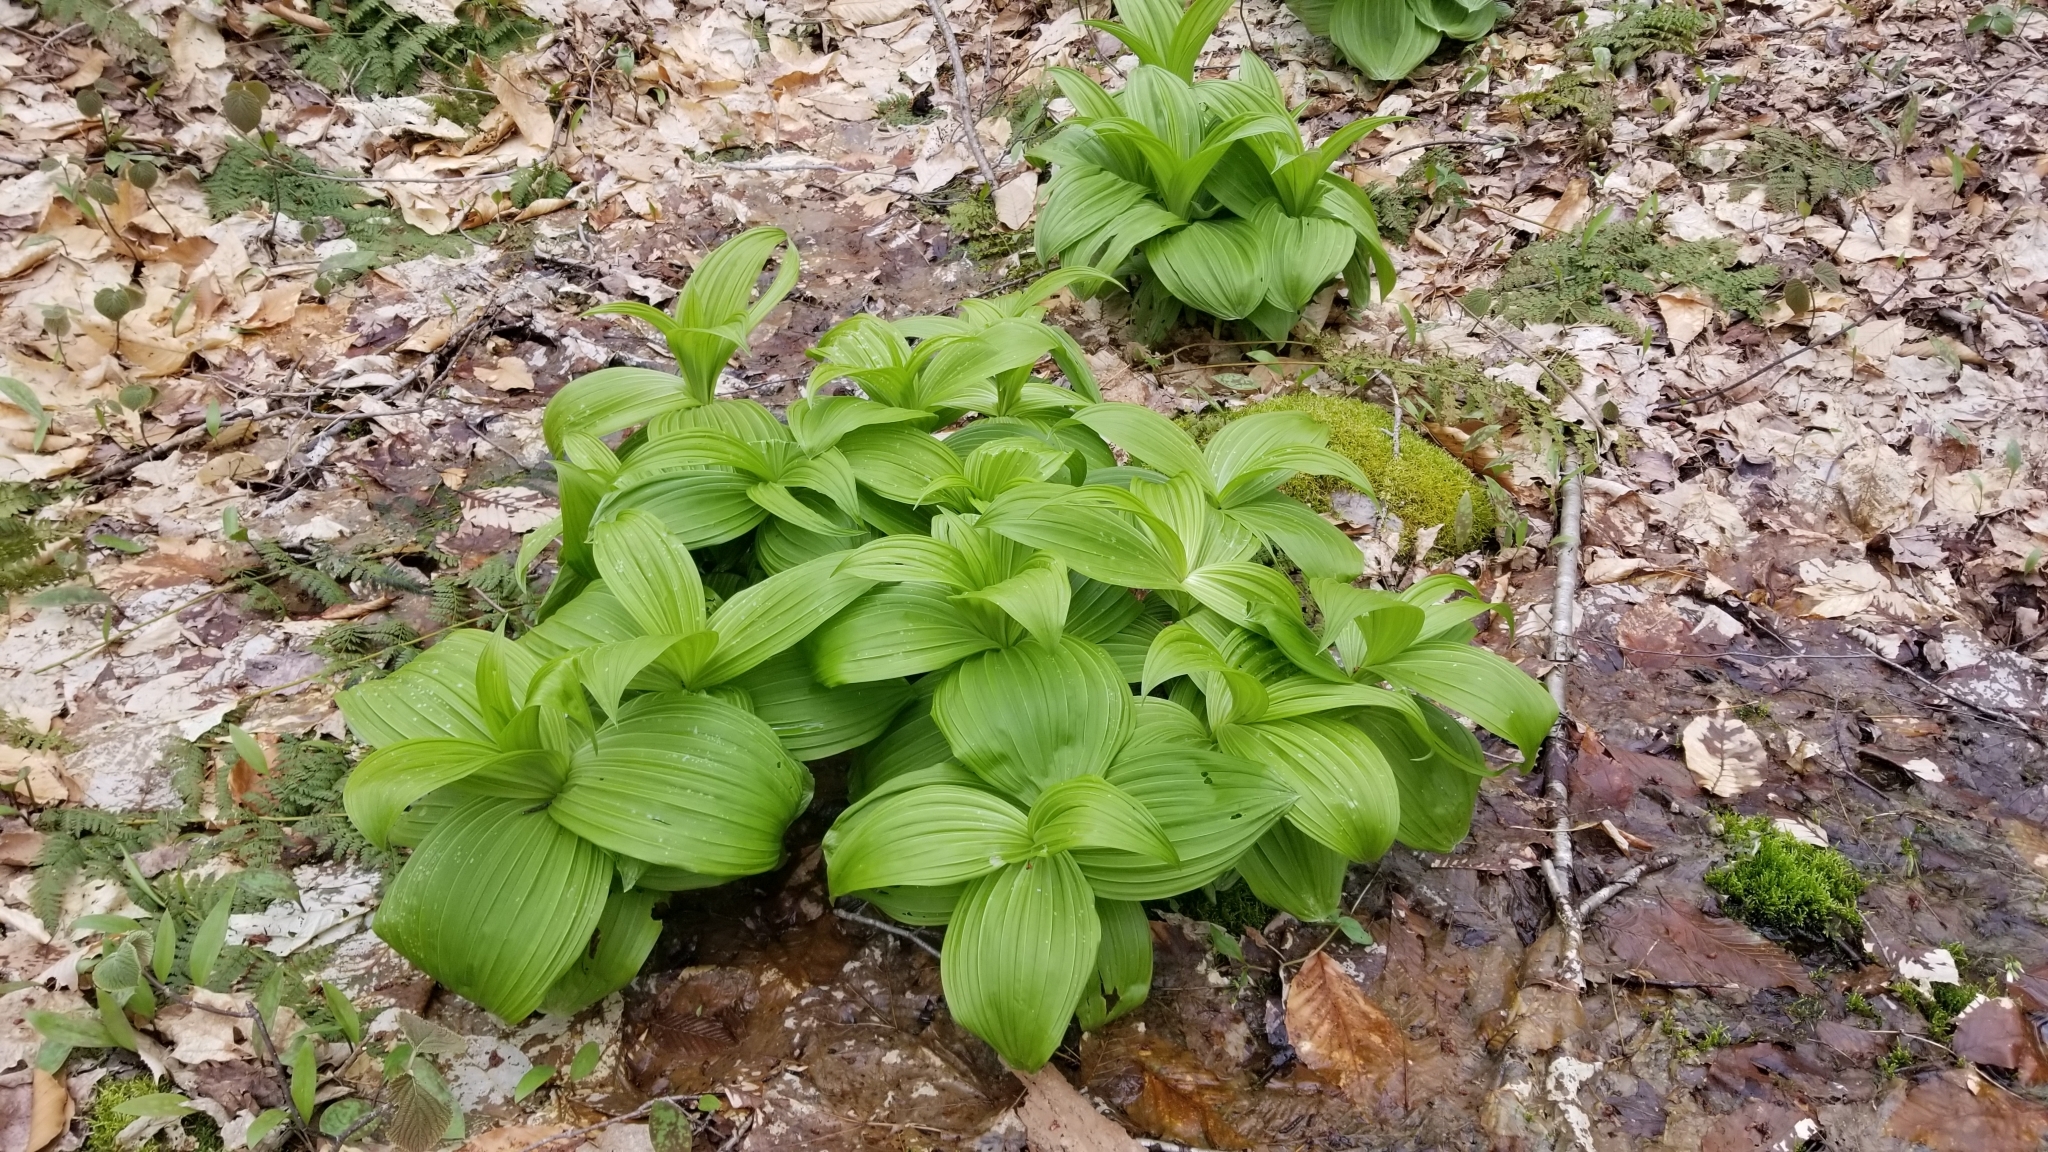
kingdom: Plantae
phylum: Tracheophyta
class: Liliopsida
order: Liliales
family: Melanthiaceae
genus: Veratrum
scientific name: Veratrum viride
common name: American false hellebore
